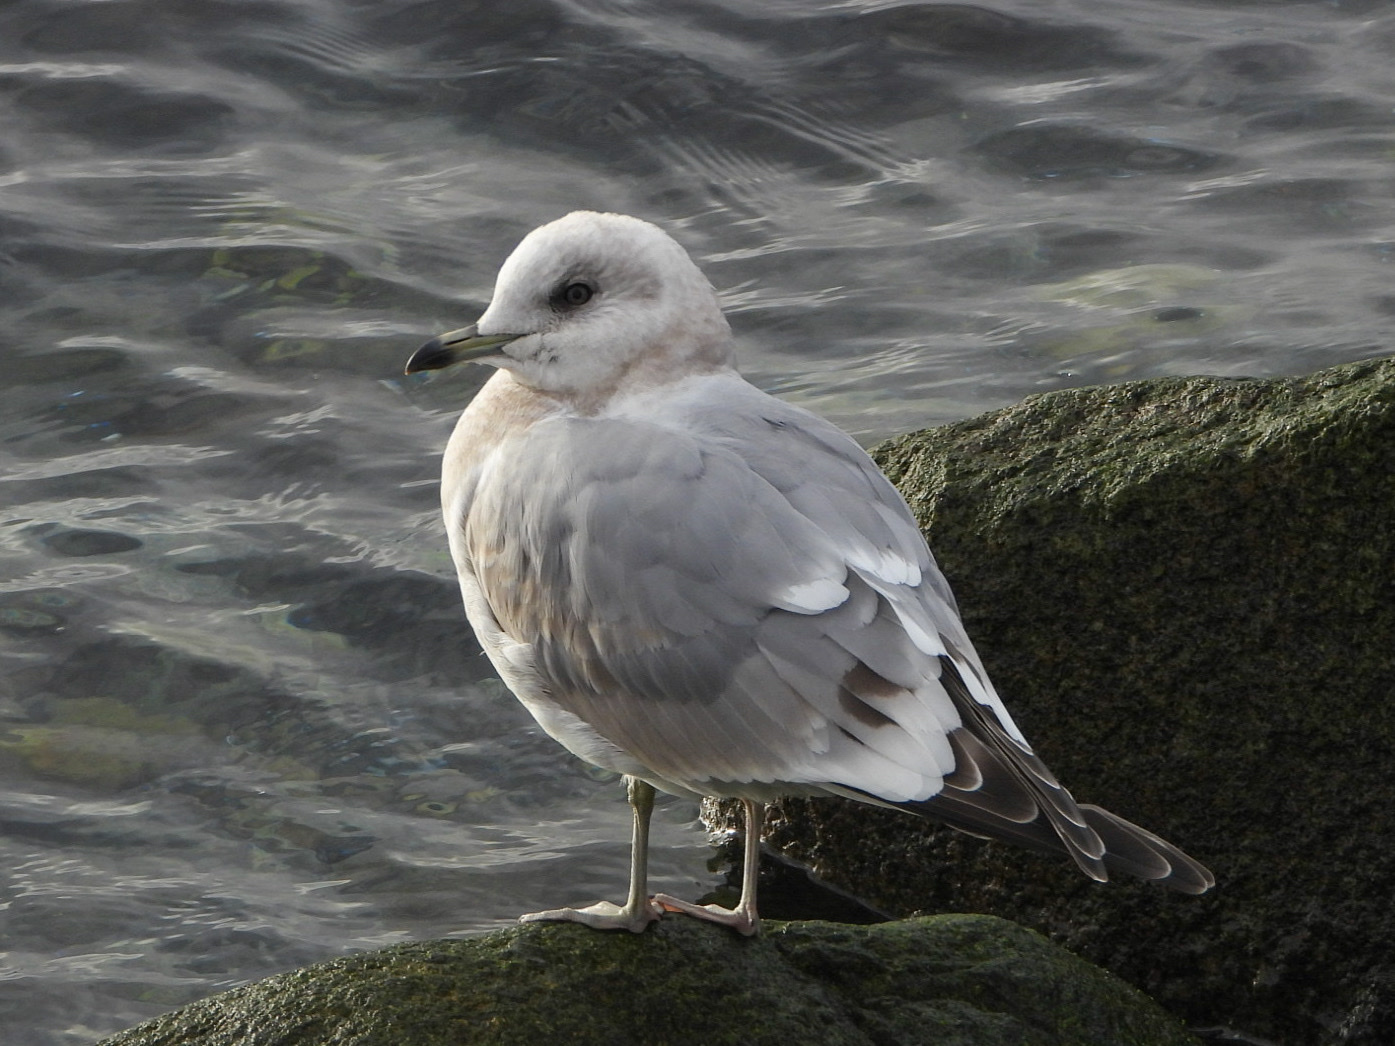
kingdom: Animalia
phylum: Chordata
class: Aves
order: Charadriiformes
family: Laridae
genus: Larus
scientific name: Larus brachyrhynchus
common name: Short-billed gull
